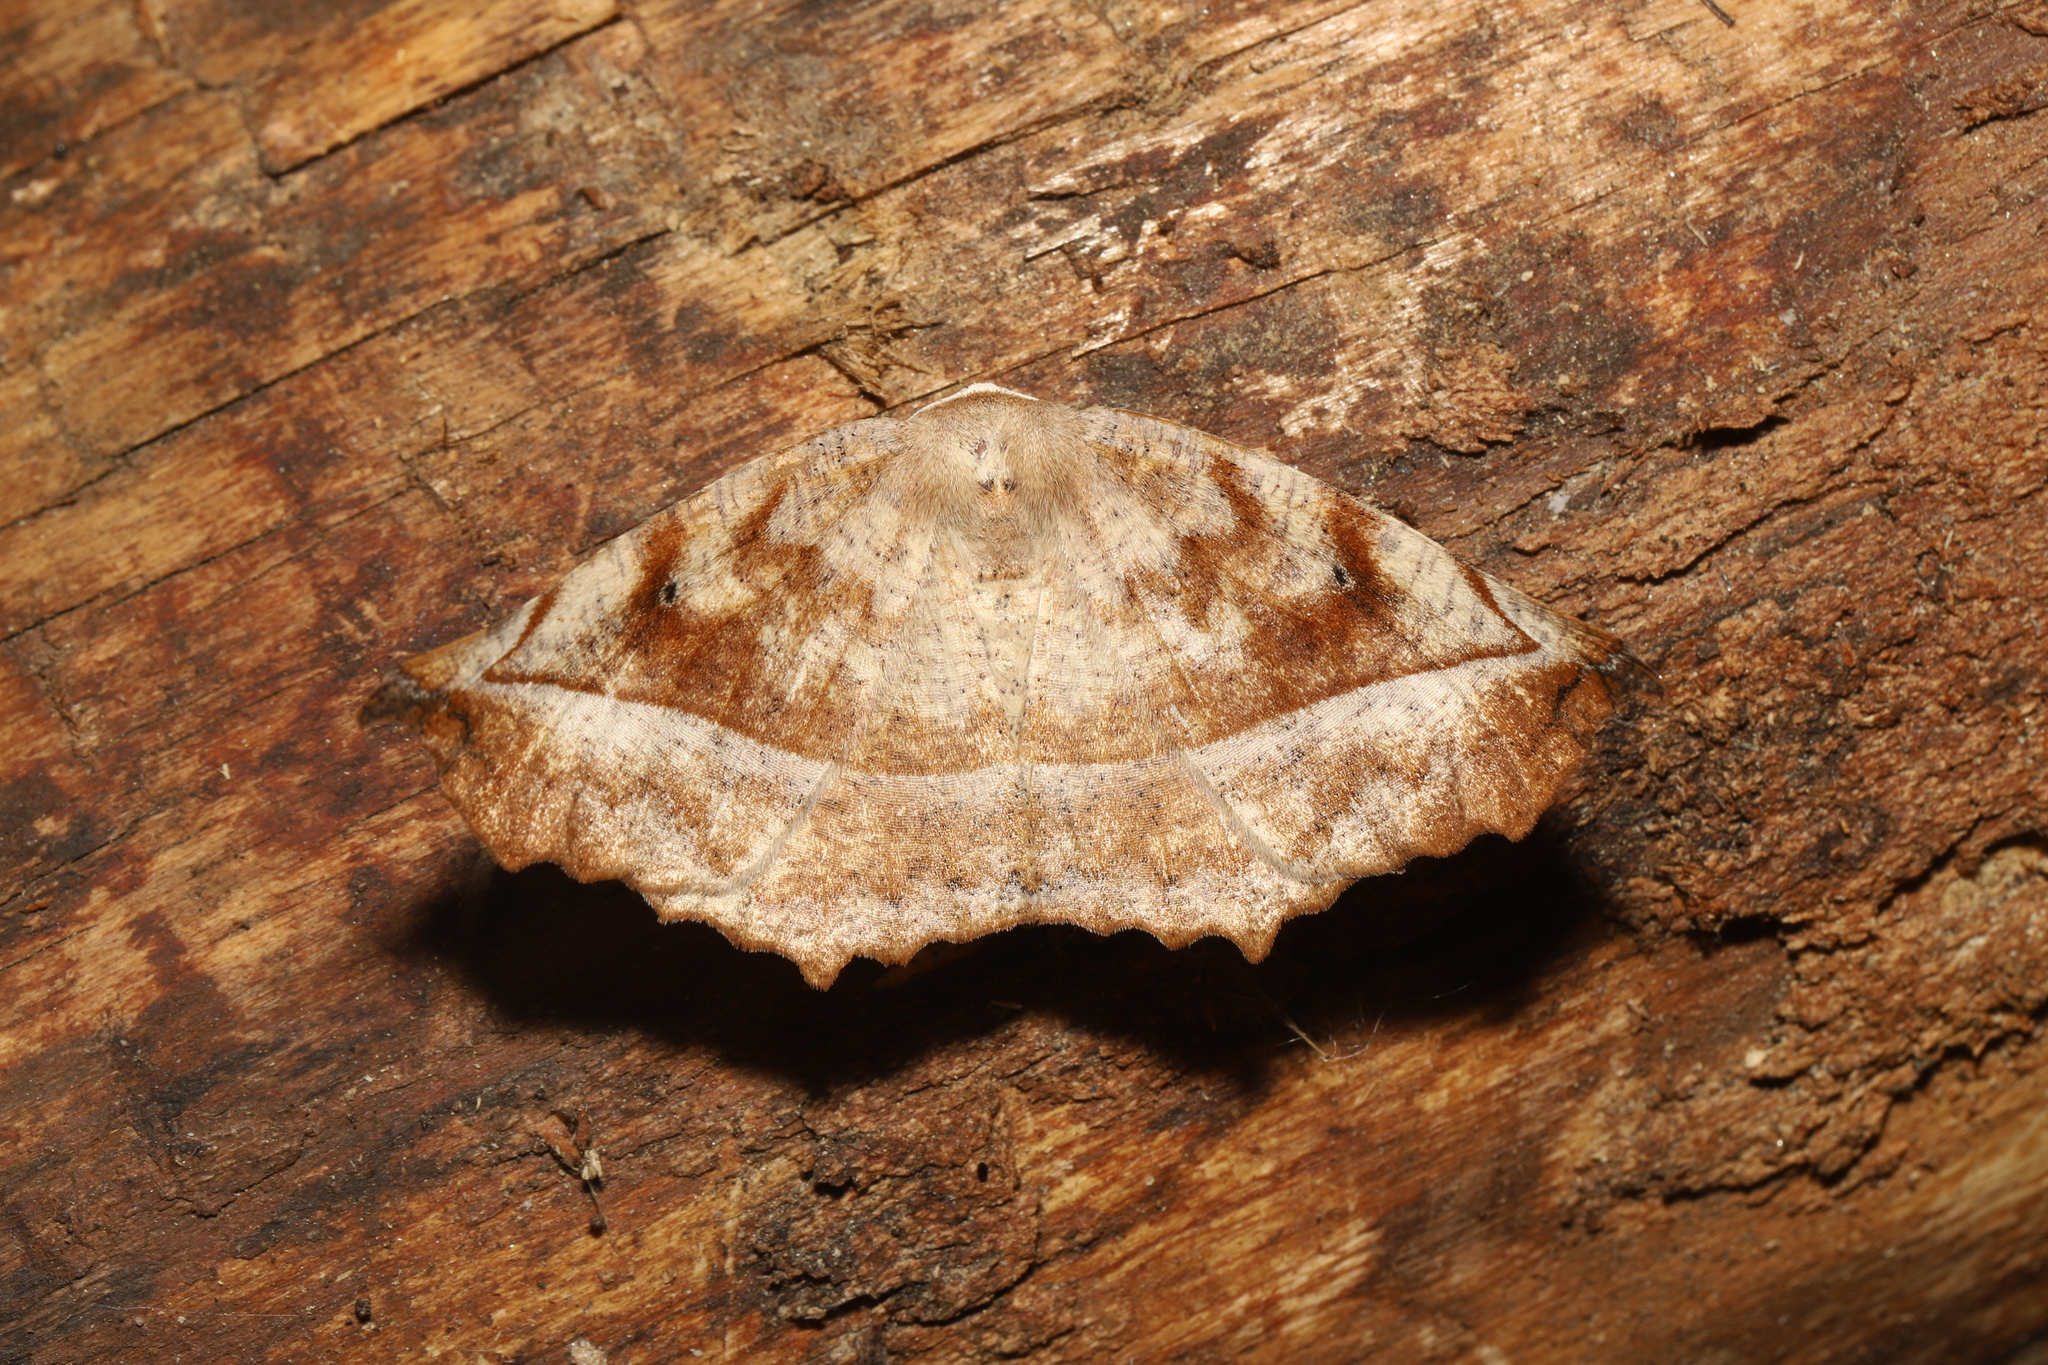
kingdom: Animalia
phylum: Arthropoda
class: Insecta
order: Lepidoptera
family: Geometridae
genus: Eutrapela
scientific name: Eutrapela clemataria
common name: Curved-toothed geometer
